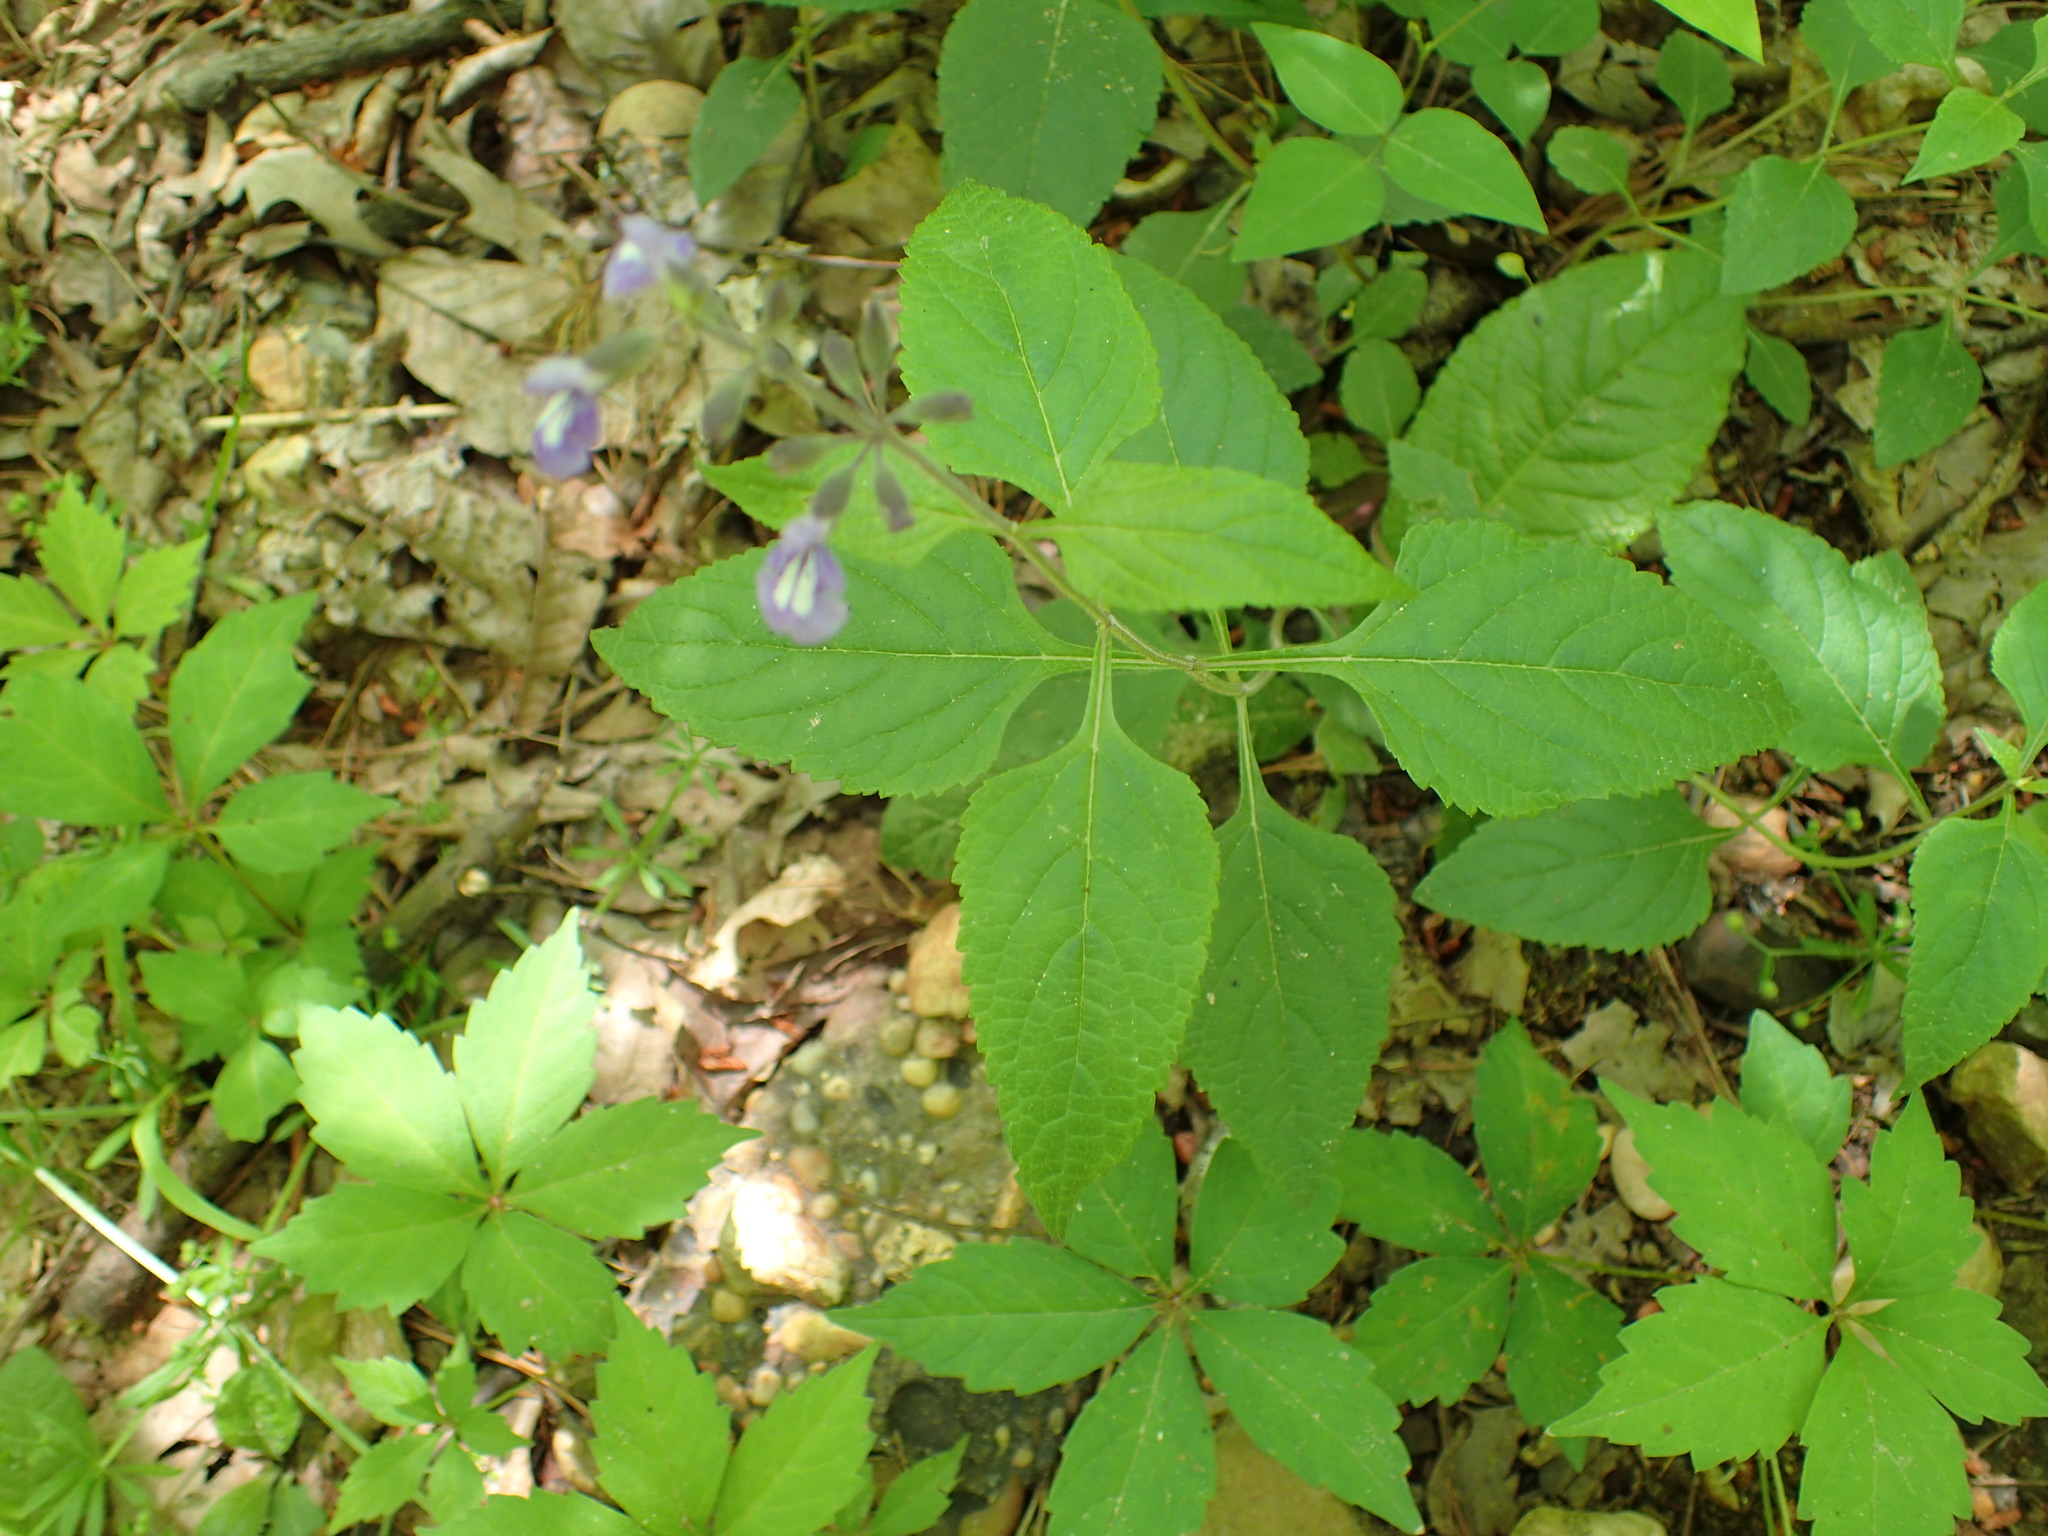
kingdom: Plantae
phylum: Tracheophyta
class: Magnoliopsida
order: Lamiales
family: Lamiaceae
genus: Salvia
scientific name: Salvia urticifolia
